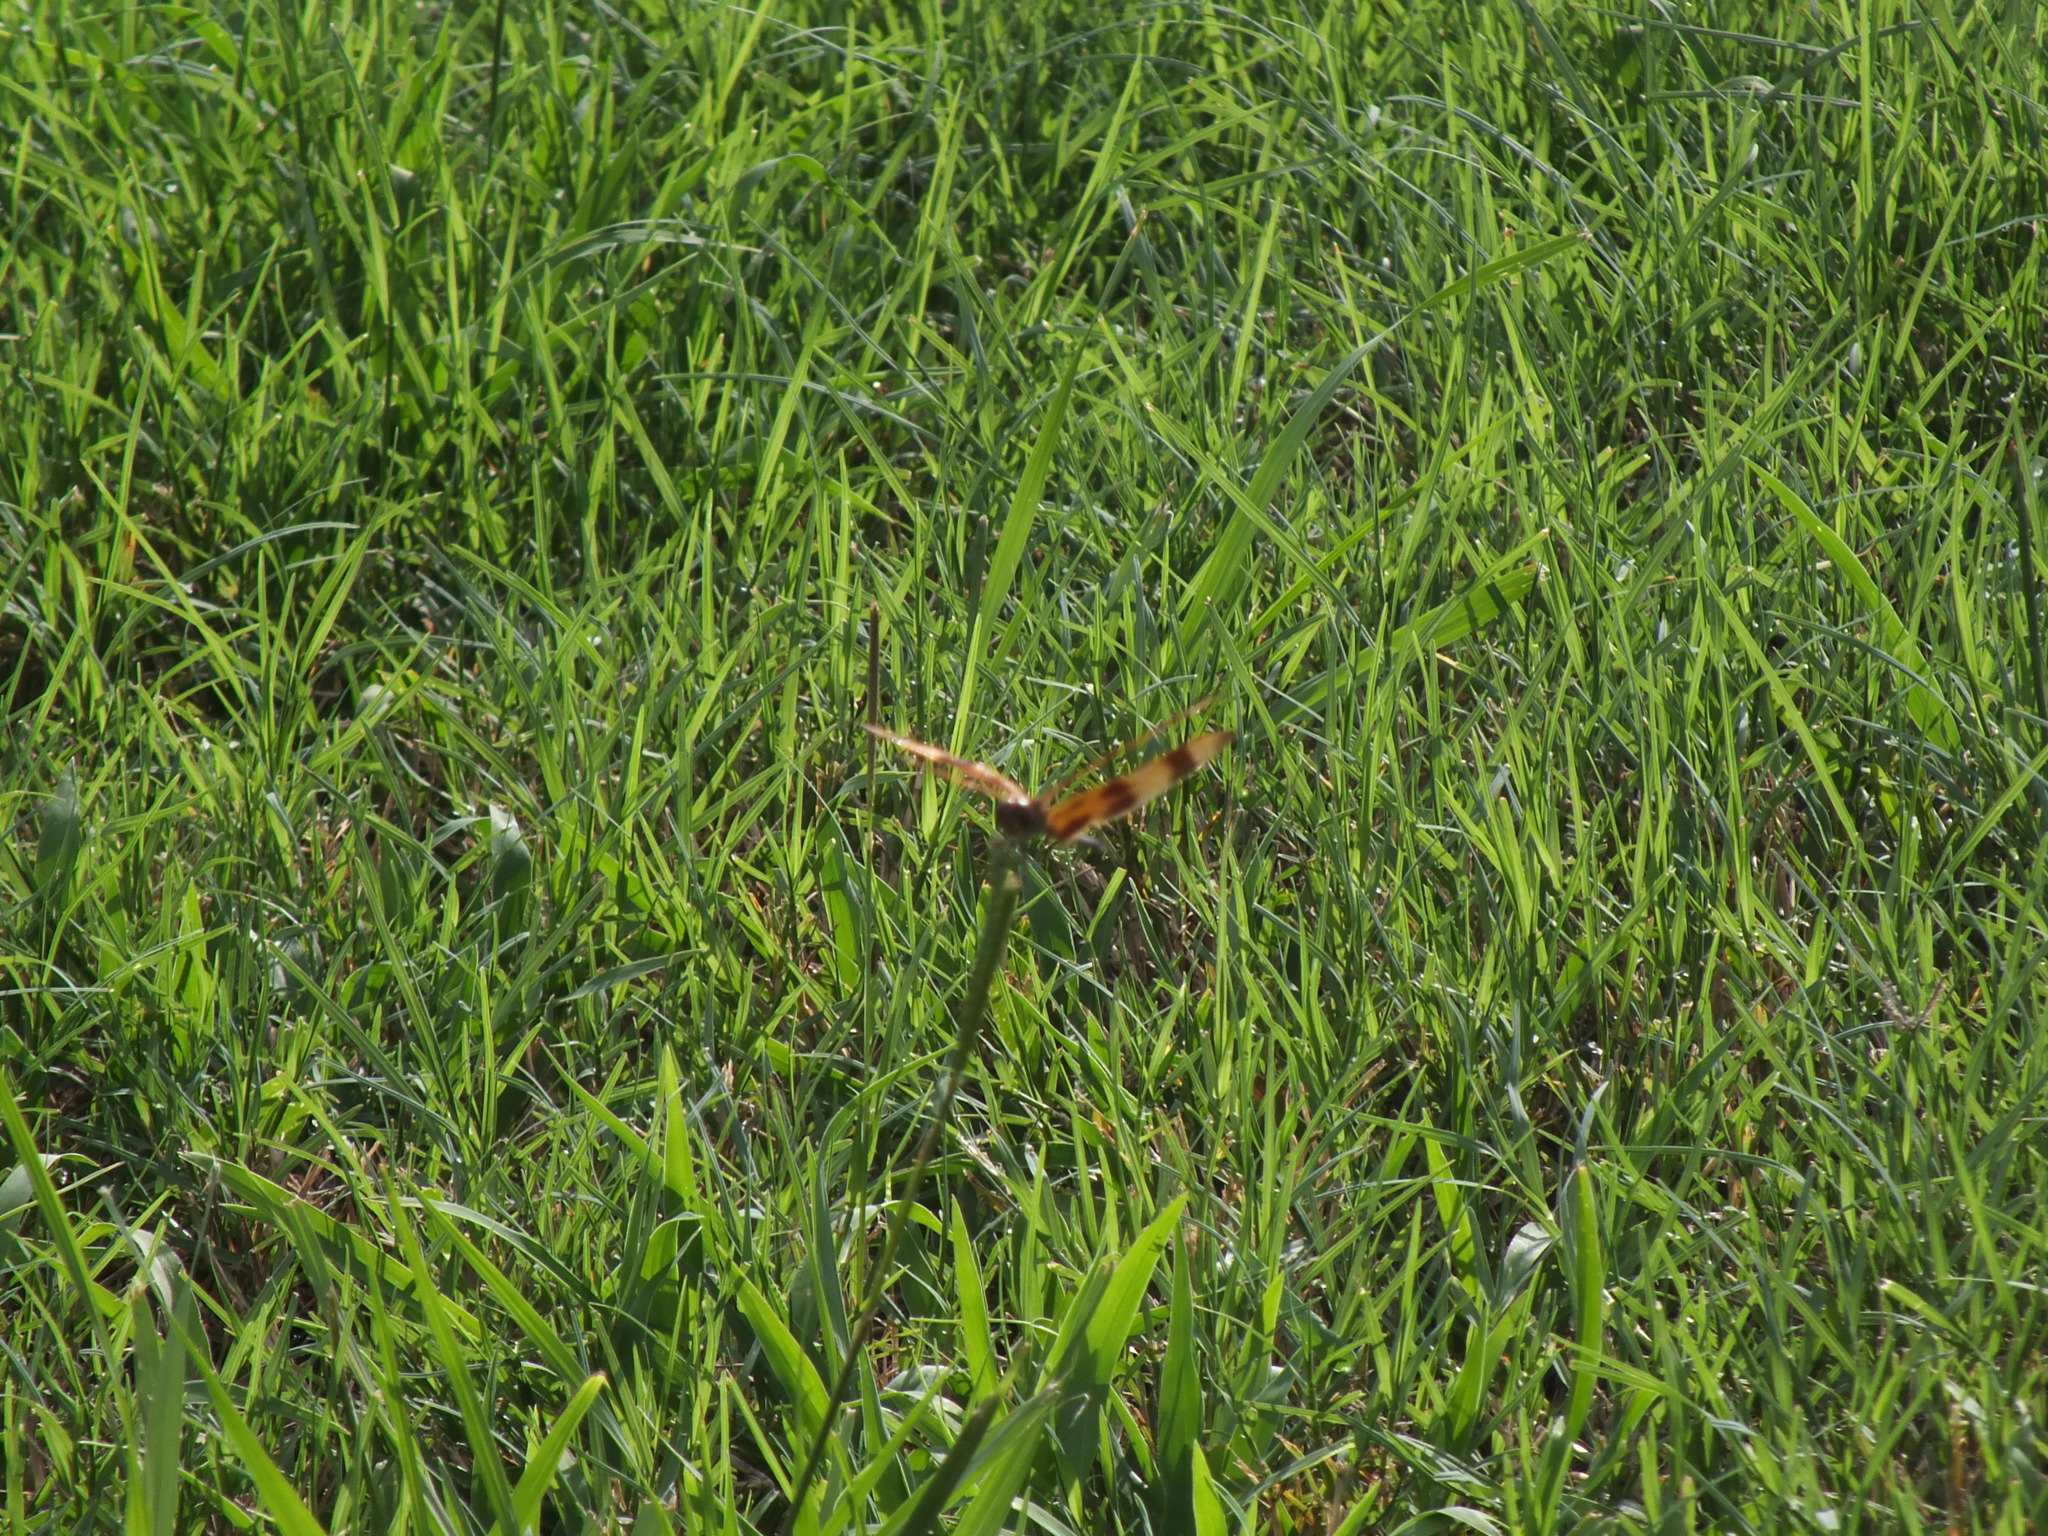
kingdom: Animalia
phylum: Arthropoda
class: Insecta
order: Odonata
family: Libellulidae
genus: Celithemis
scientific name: Celithemis eponina
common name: Halloween pennant
